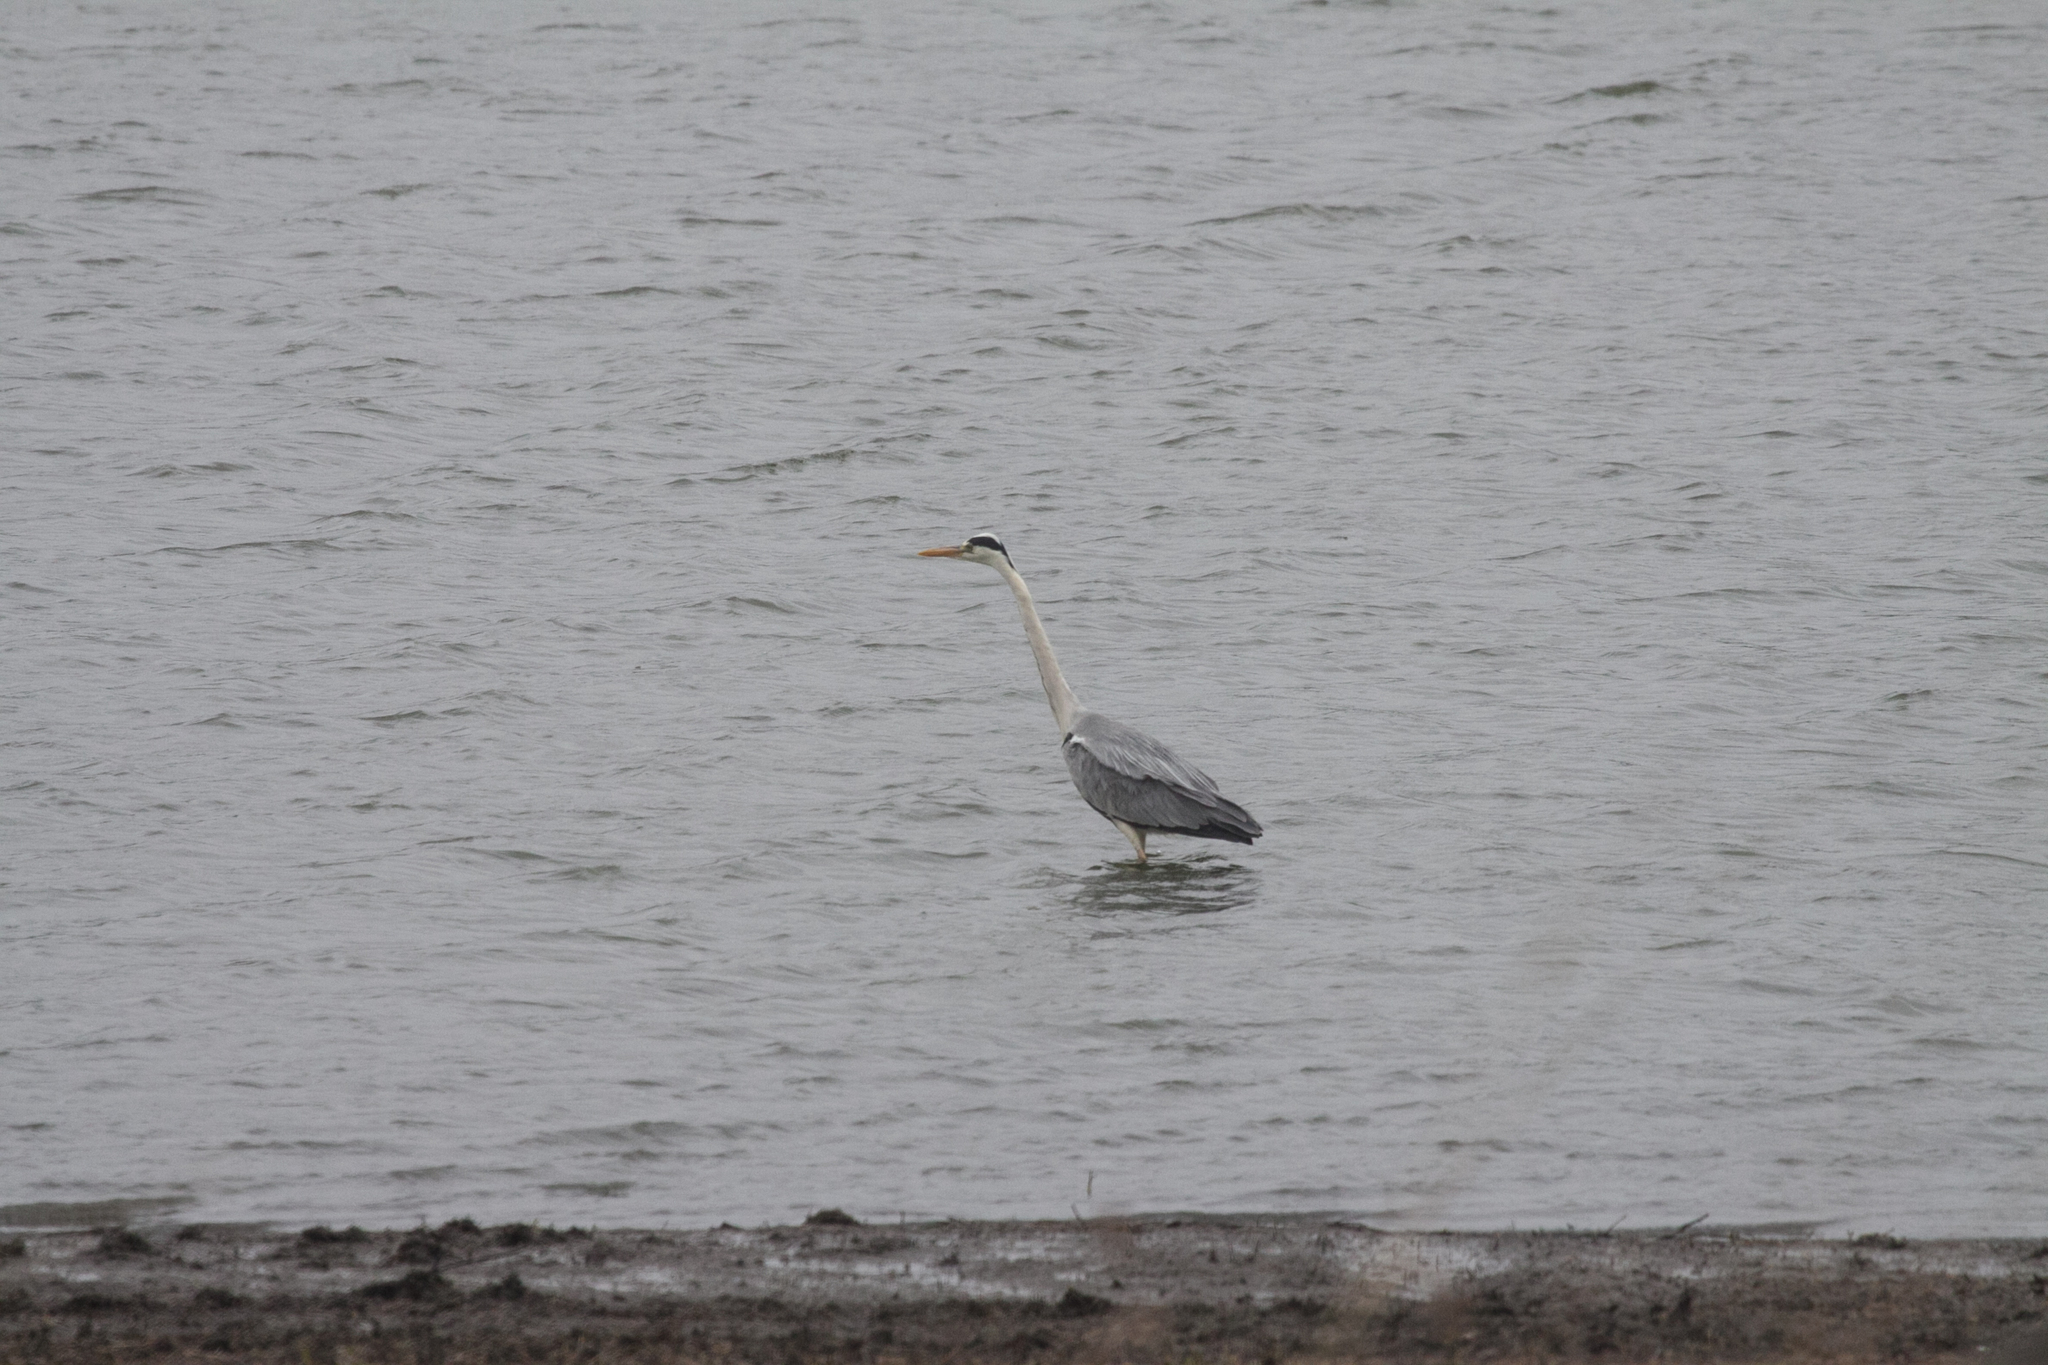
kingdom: Animalia
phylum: Chordata
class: Aves
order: Pelecaniformes
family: Ardeidae
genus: Ardea
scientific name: Ardea cinerea
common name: Grey heron
